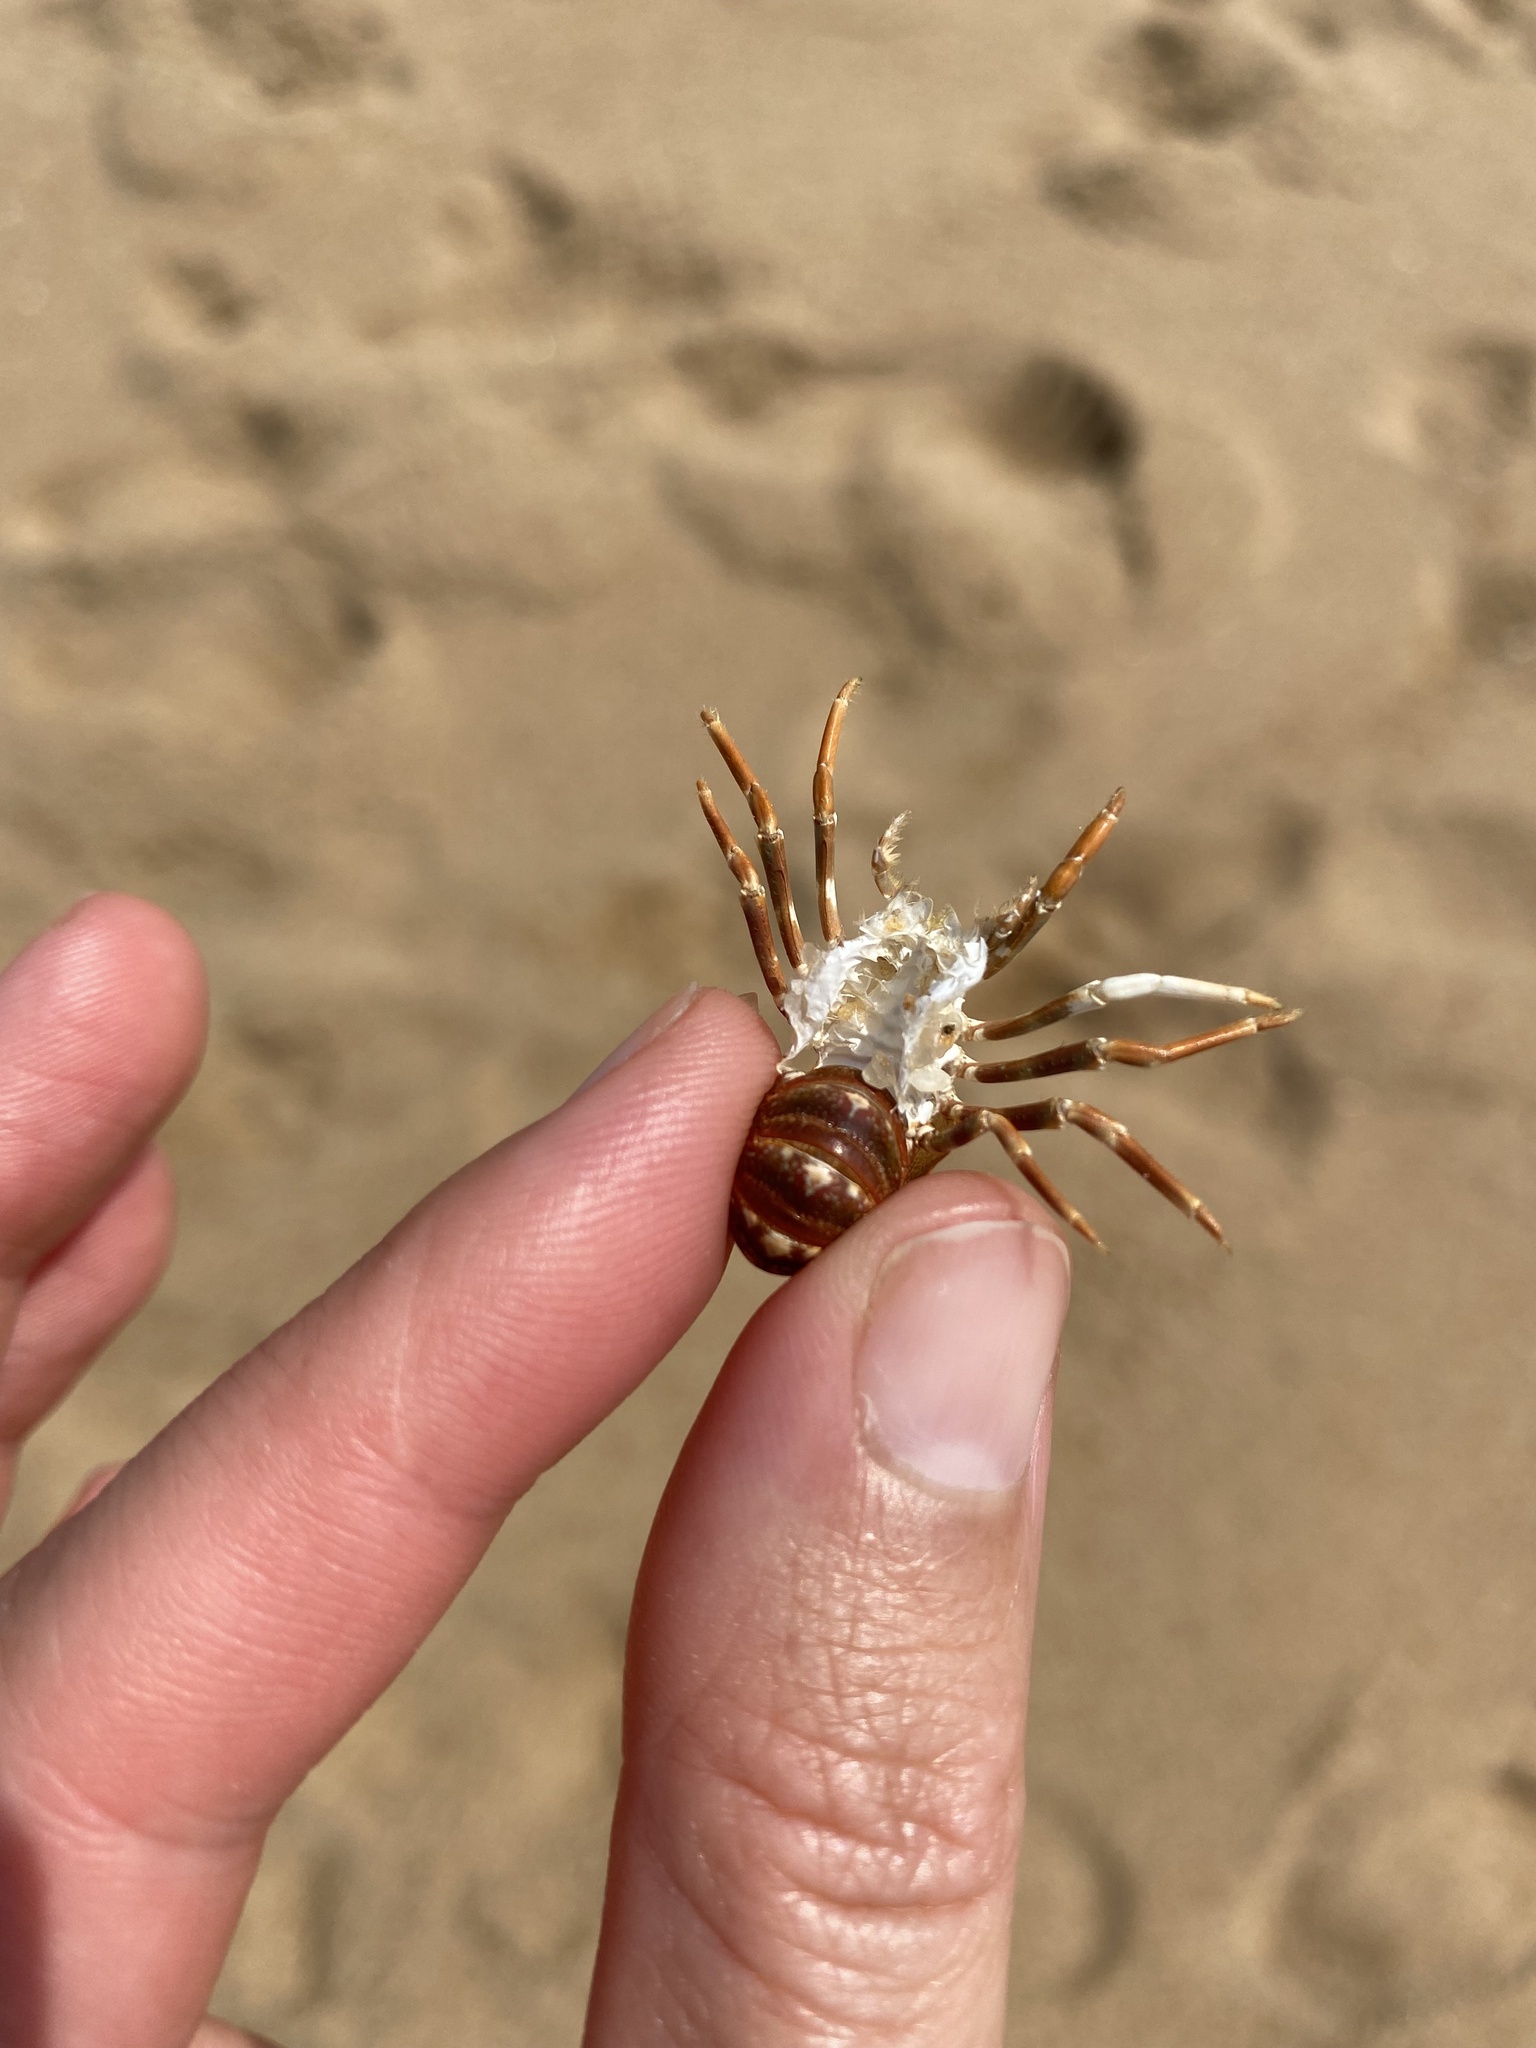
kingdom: Animalia
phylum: Arthropoda
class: Malacostraca
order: Decapoda
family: Palinuridae
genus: Panulirus
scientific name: Panulirus homarus
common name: Scalloped spiny lobster
